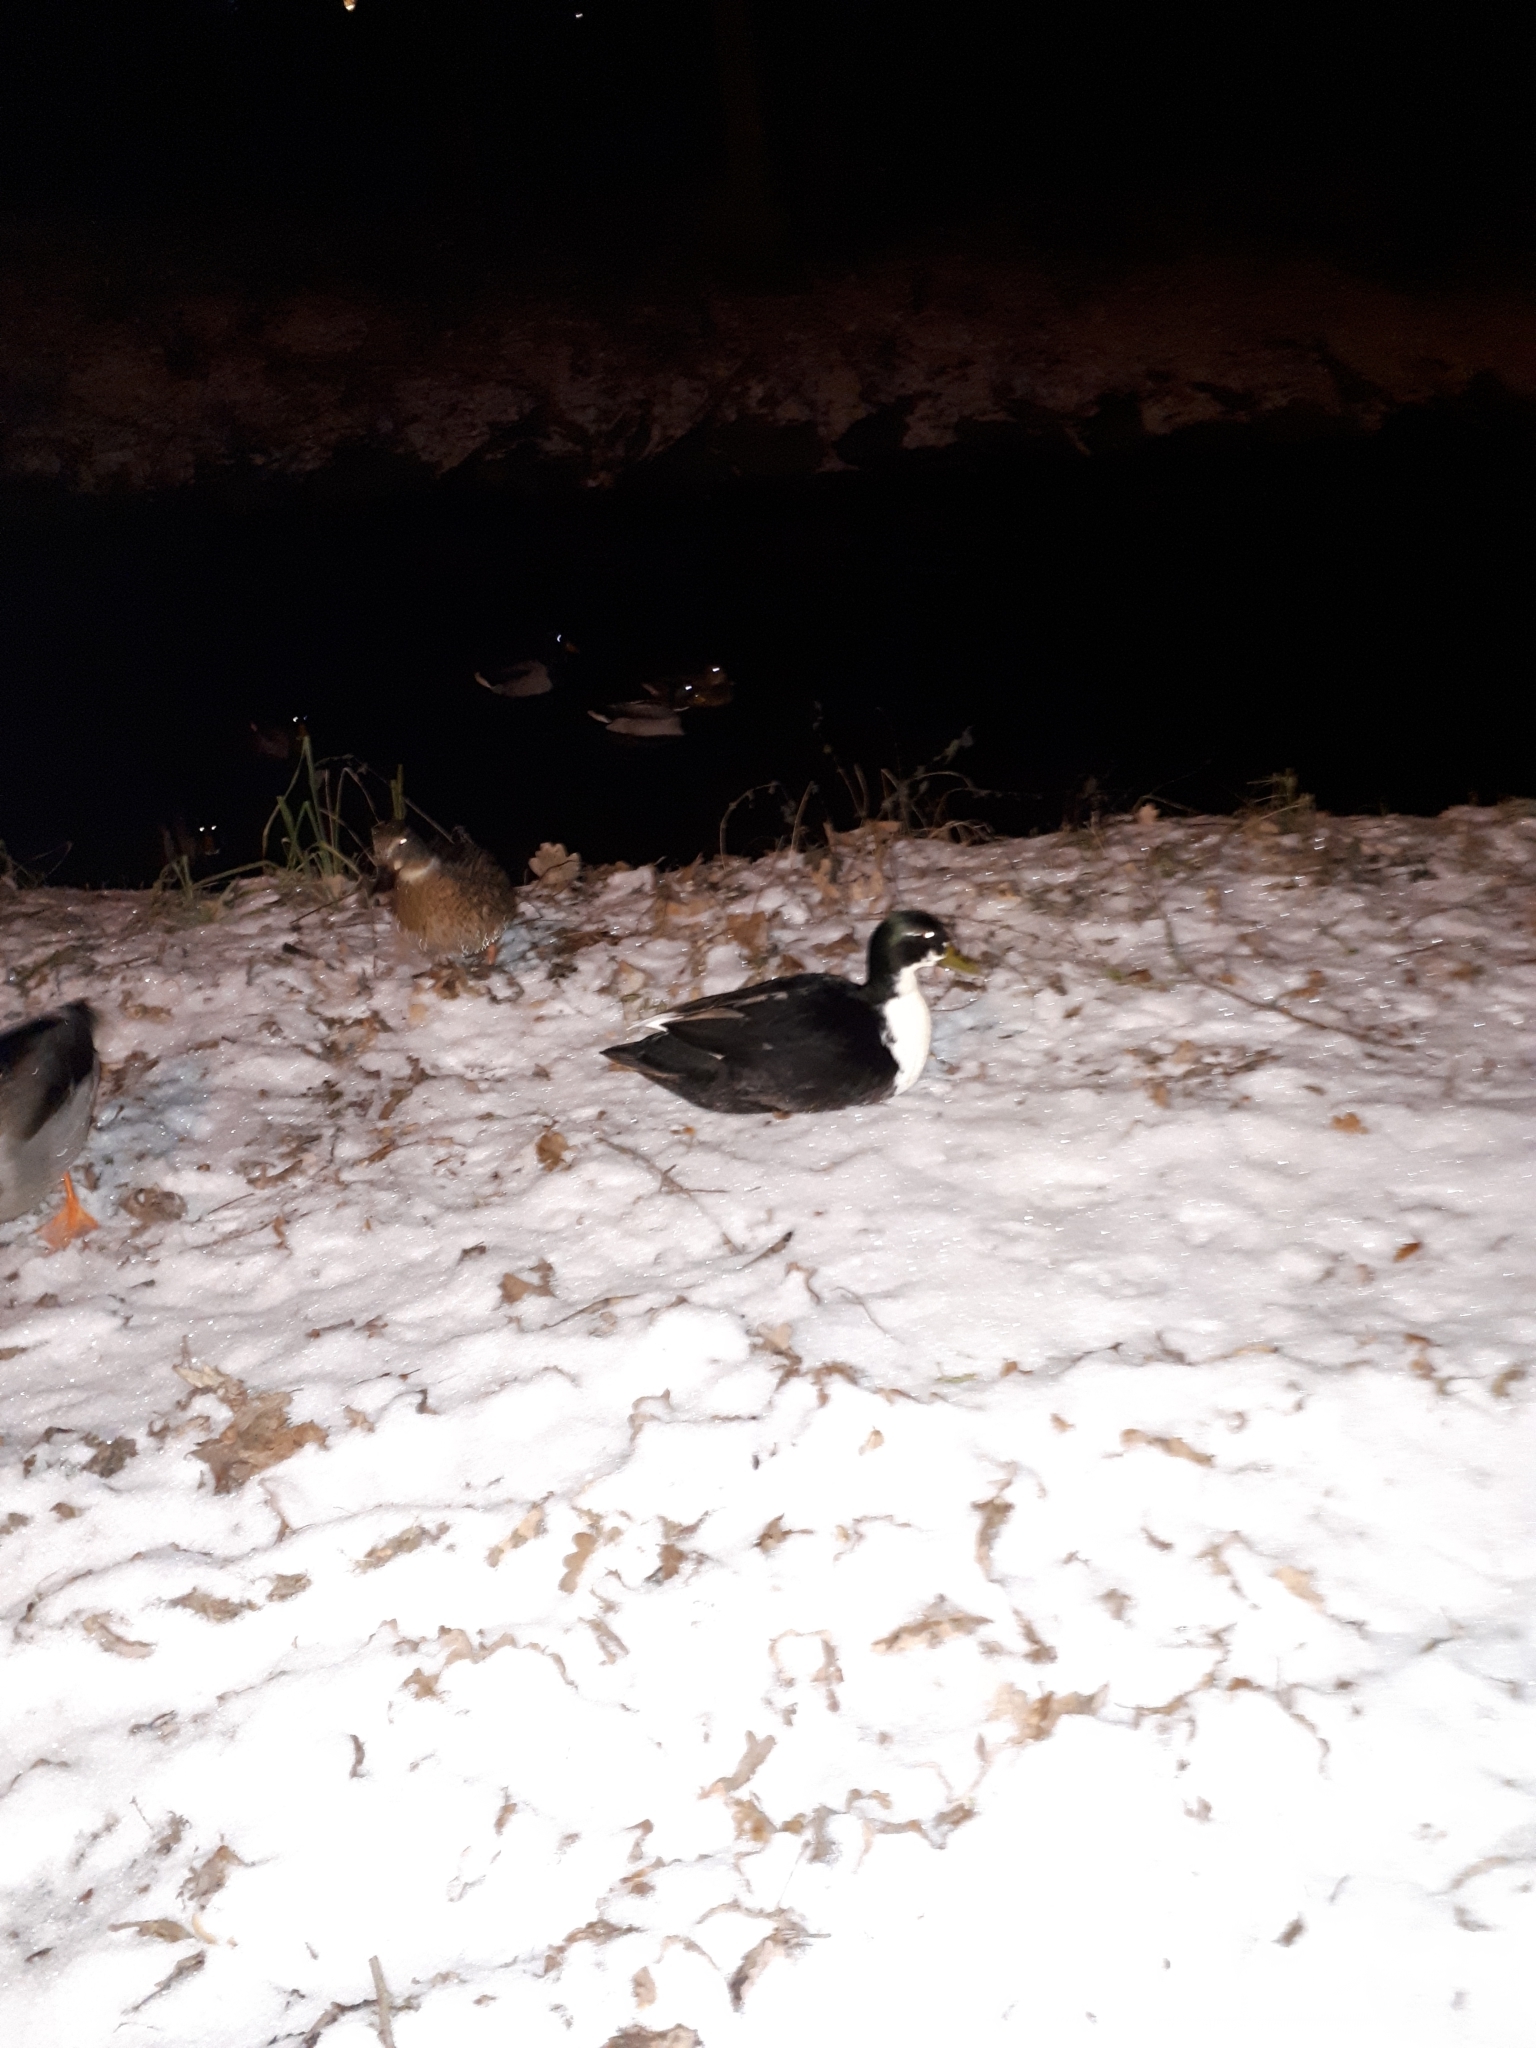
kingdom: Animalia
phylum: Chordata
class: Aves
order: Anseriformes
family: Anatidae
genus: Anas
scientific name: Anas platyrhynchos
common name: Mallard
